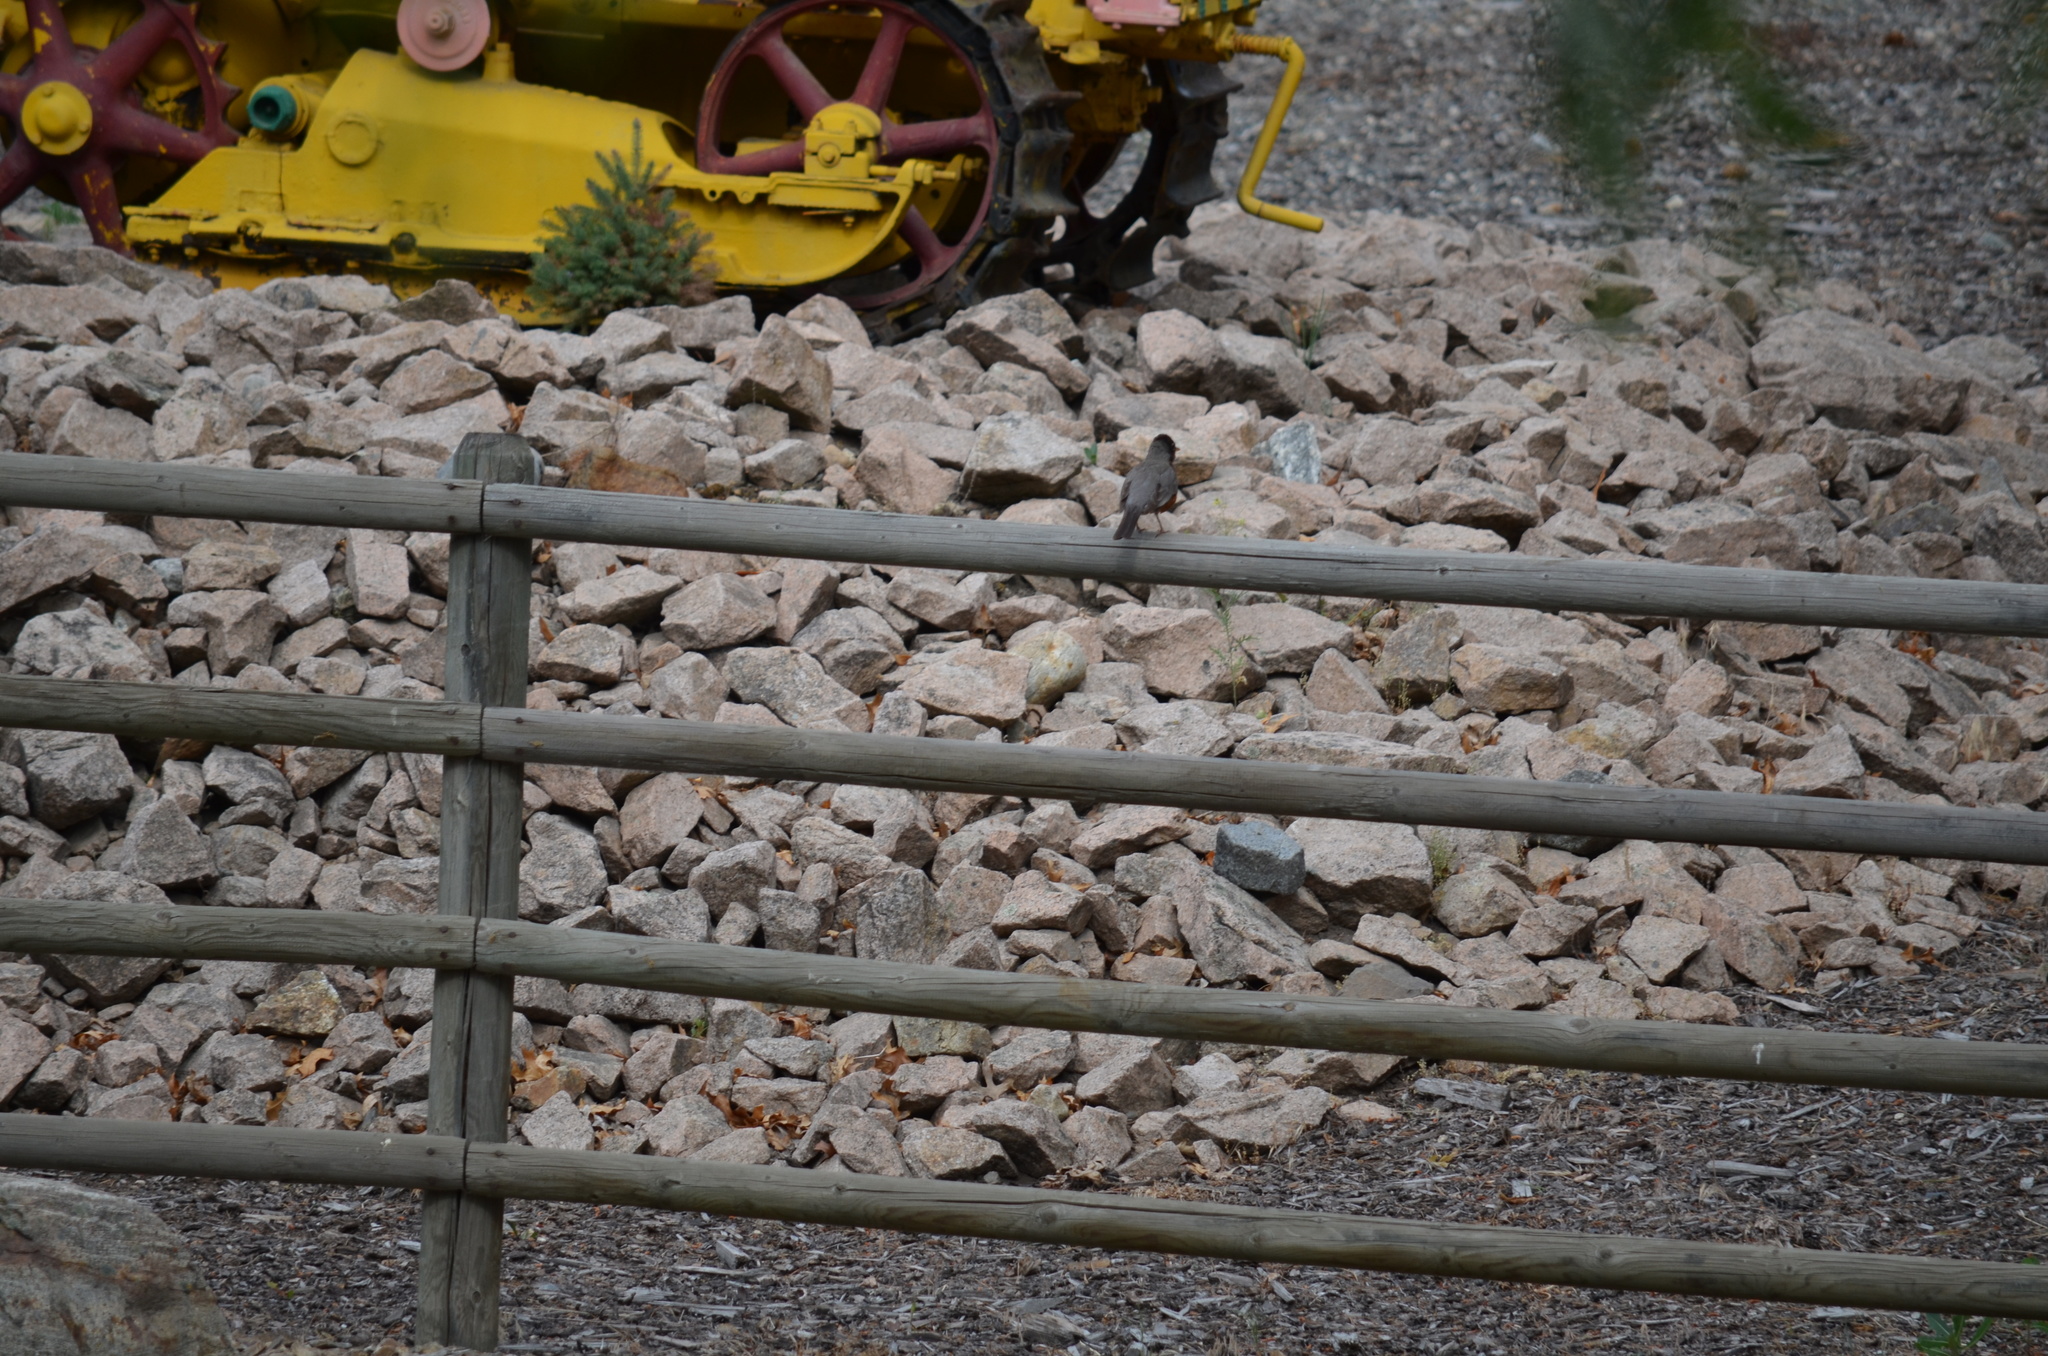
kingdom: Animalia
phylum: Chordata
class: Aves
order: Passeriformes
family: Turdidae
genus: Turdus
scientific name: Turdus migratorius
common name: American robin
